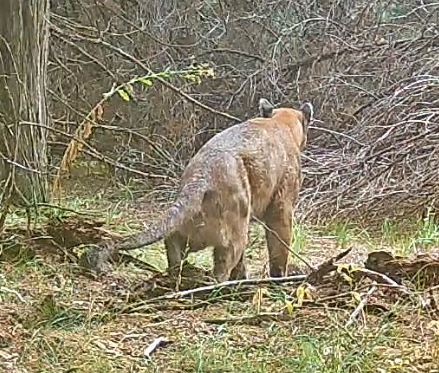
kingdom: Animalia
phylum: Chordata
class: Mammalia
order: Carnivora
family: Felidae
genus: Puma
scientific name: Puma concolor
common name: Puma
